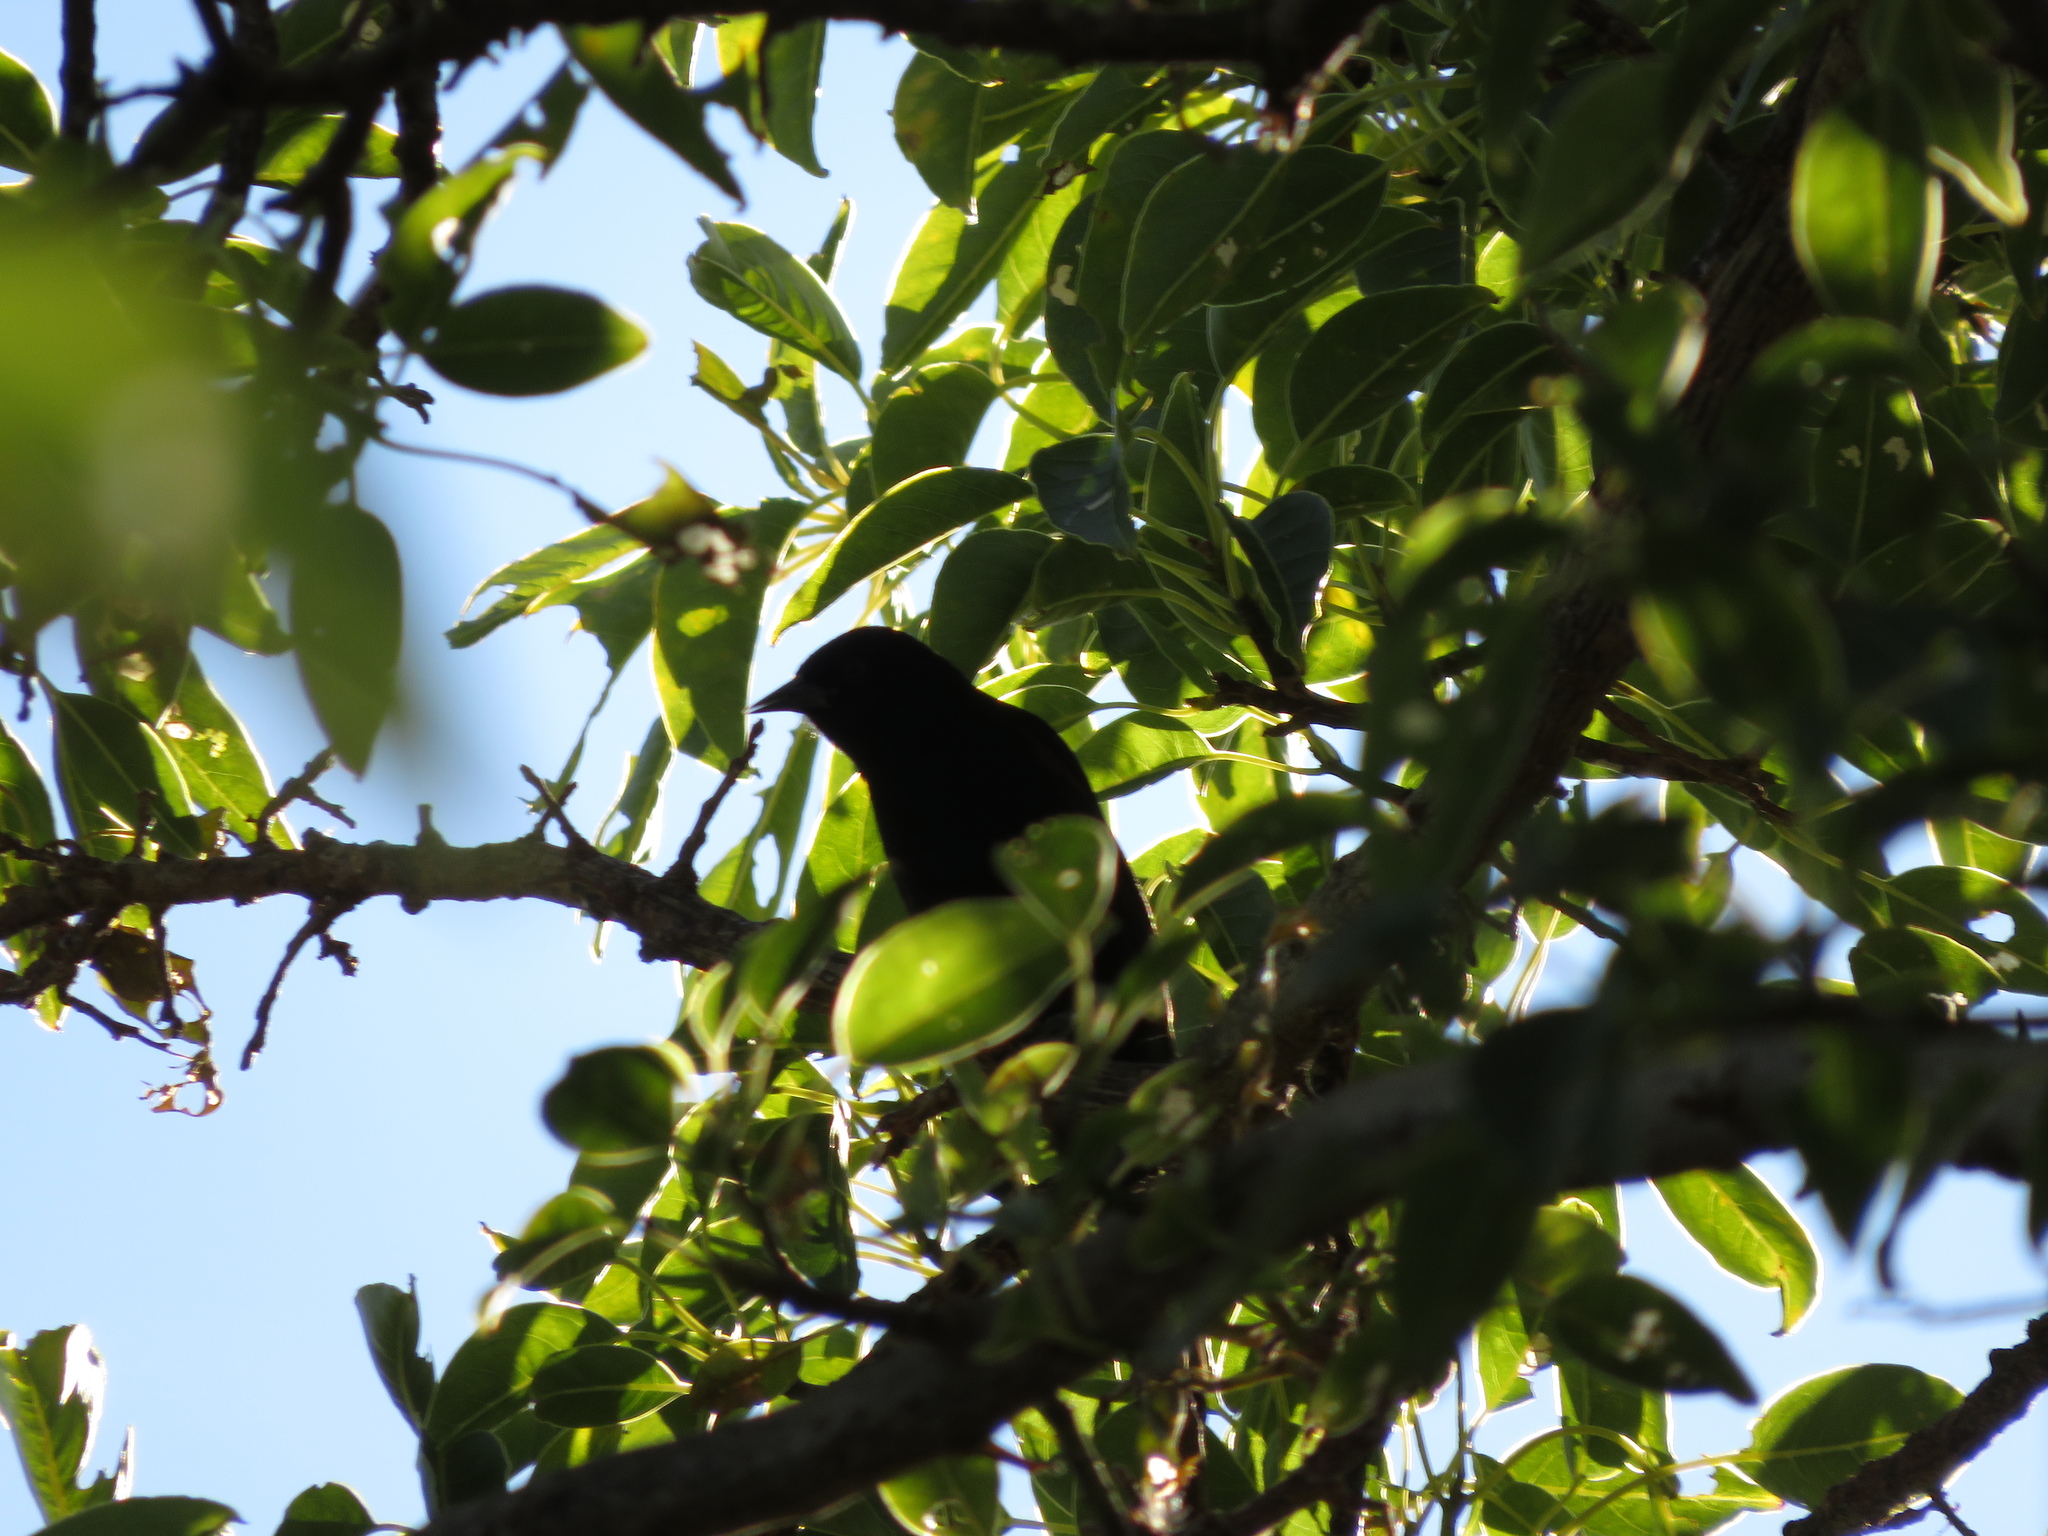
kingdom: Animalia
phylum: Chordata
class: Aves
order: Passeriformes
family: Icteridae
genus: Icterus
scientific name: Icterus cayanensis
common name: Epaulet oriole
